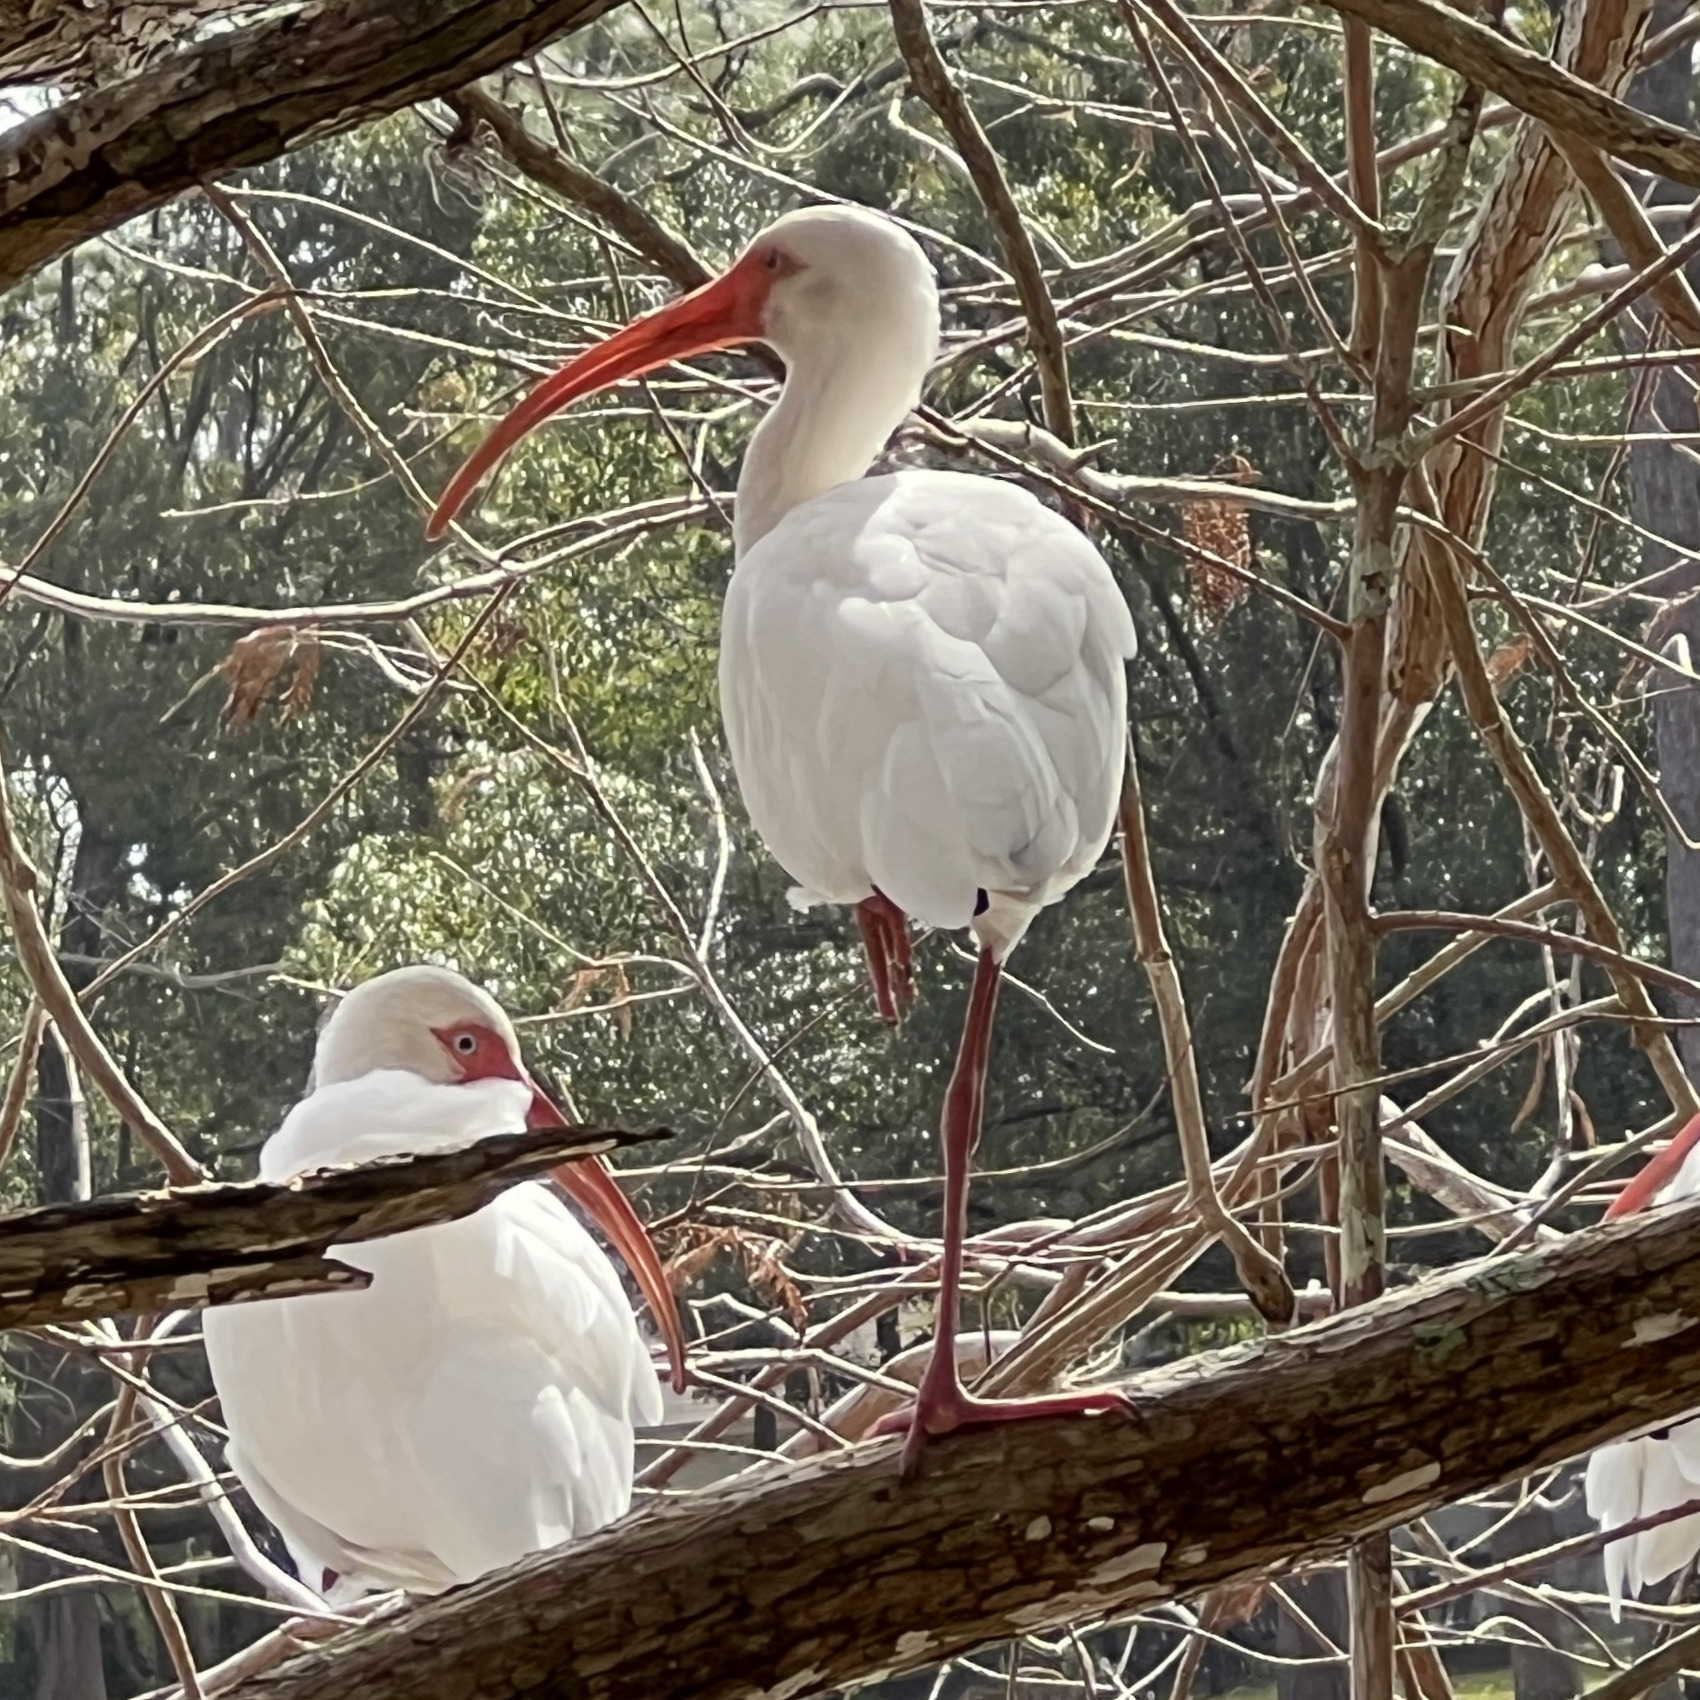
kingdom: Animalia
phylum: Chordata
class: Aves
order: Pelecaniformes
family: Threskiornithidae
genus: Eudocimus
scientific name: Eudocimus albus
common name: White ibis
